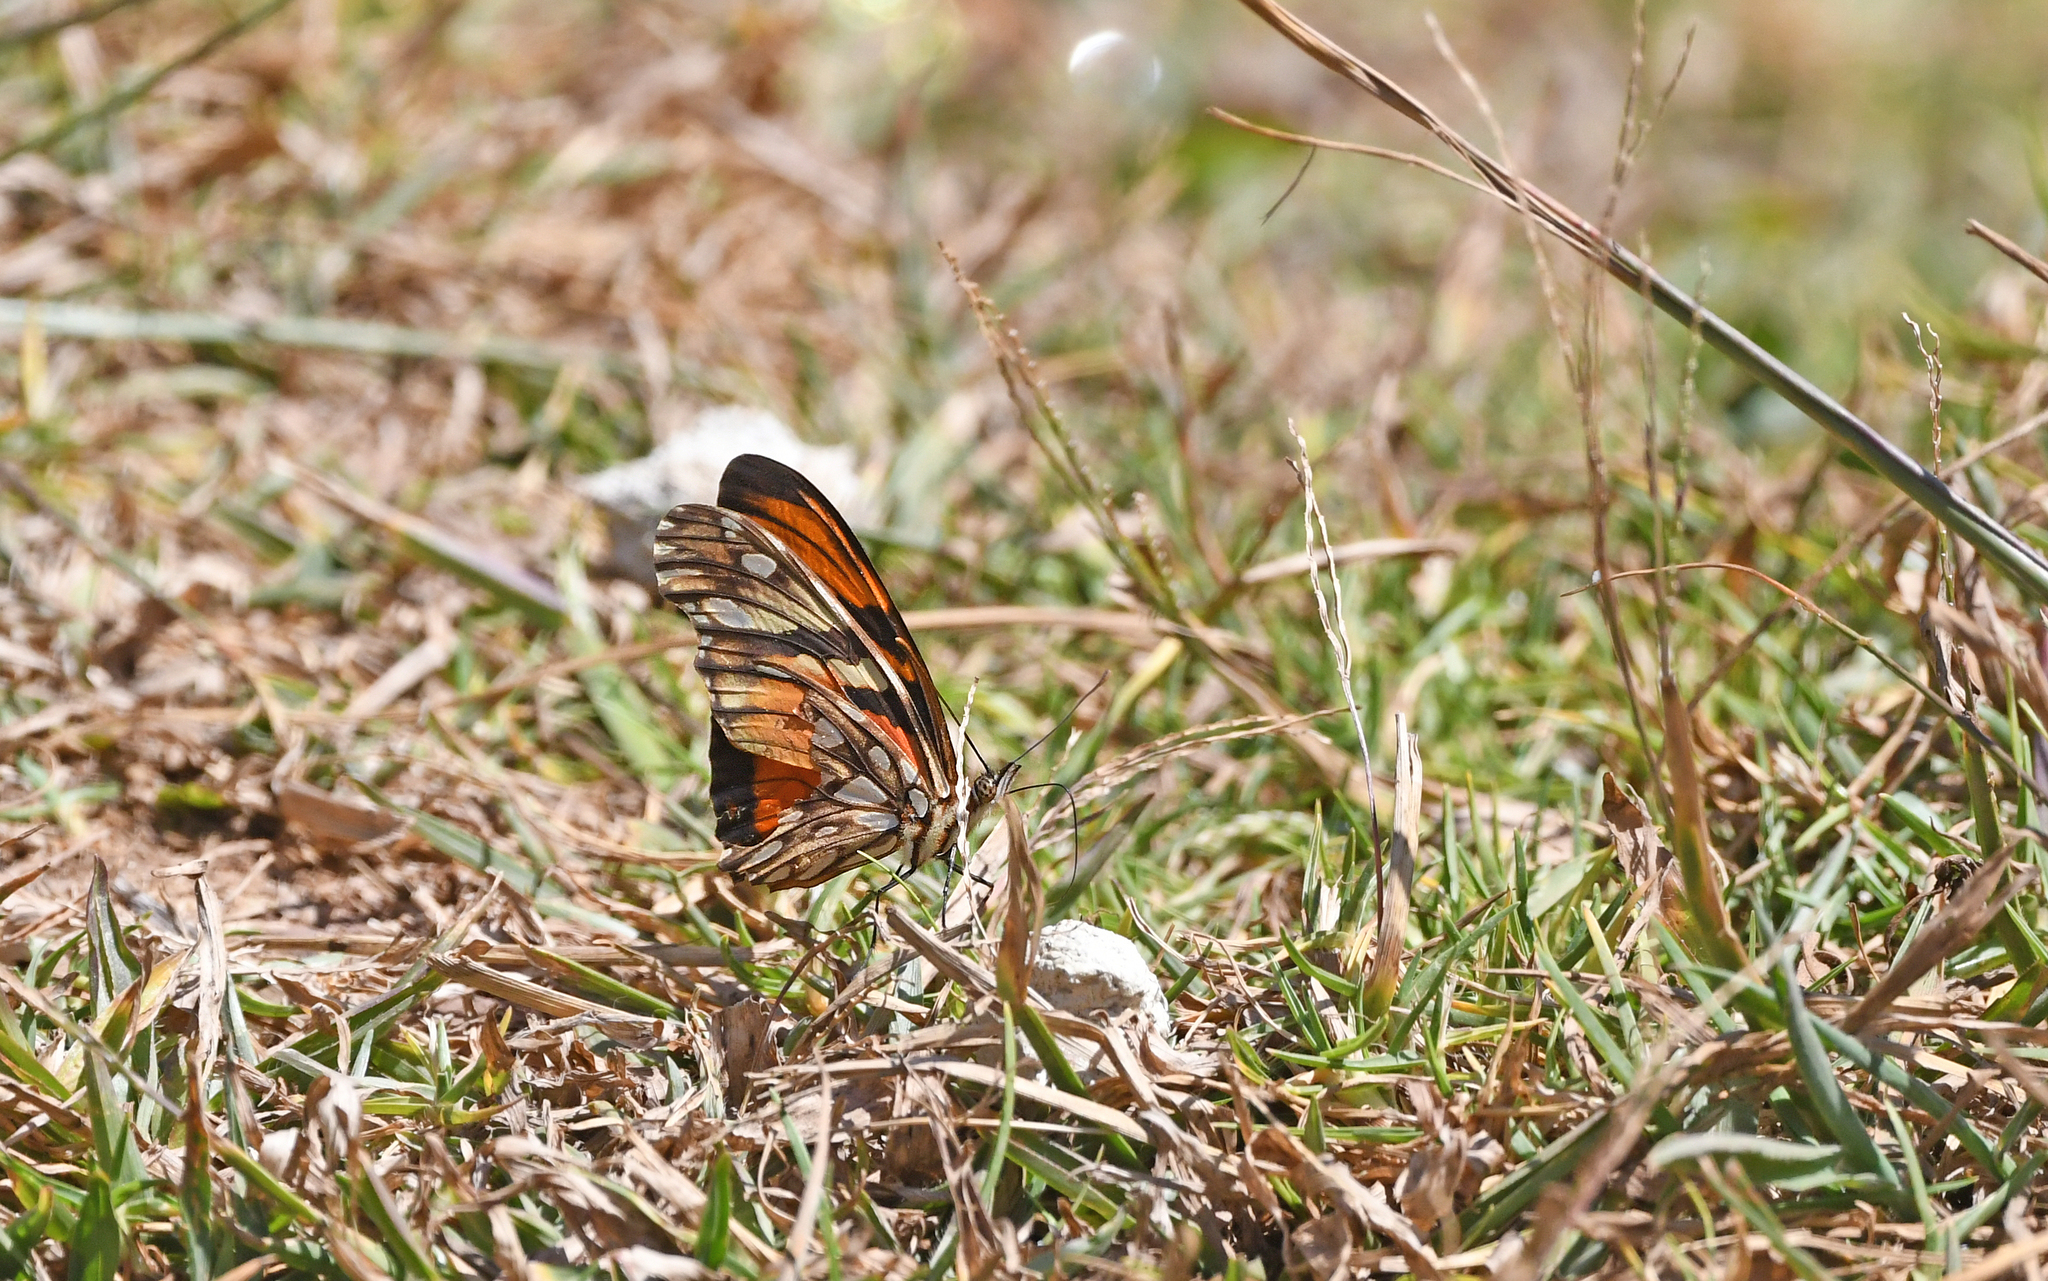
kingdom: Animalia
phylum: Arthropoda
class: Insecta
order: Lepidoptera
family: Nymphalidae
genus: Dione
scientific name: Dione juno
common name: Juno silverspot
